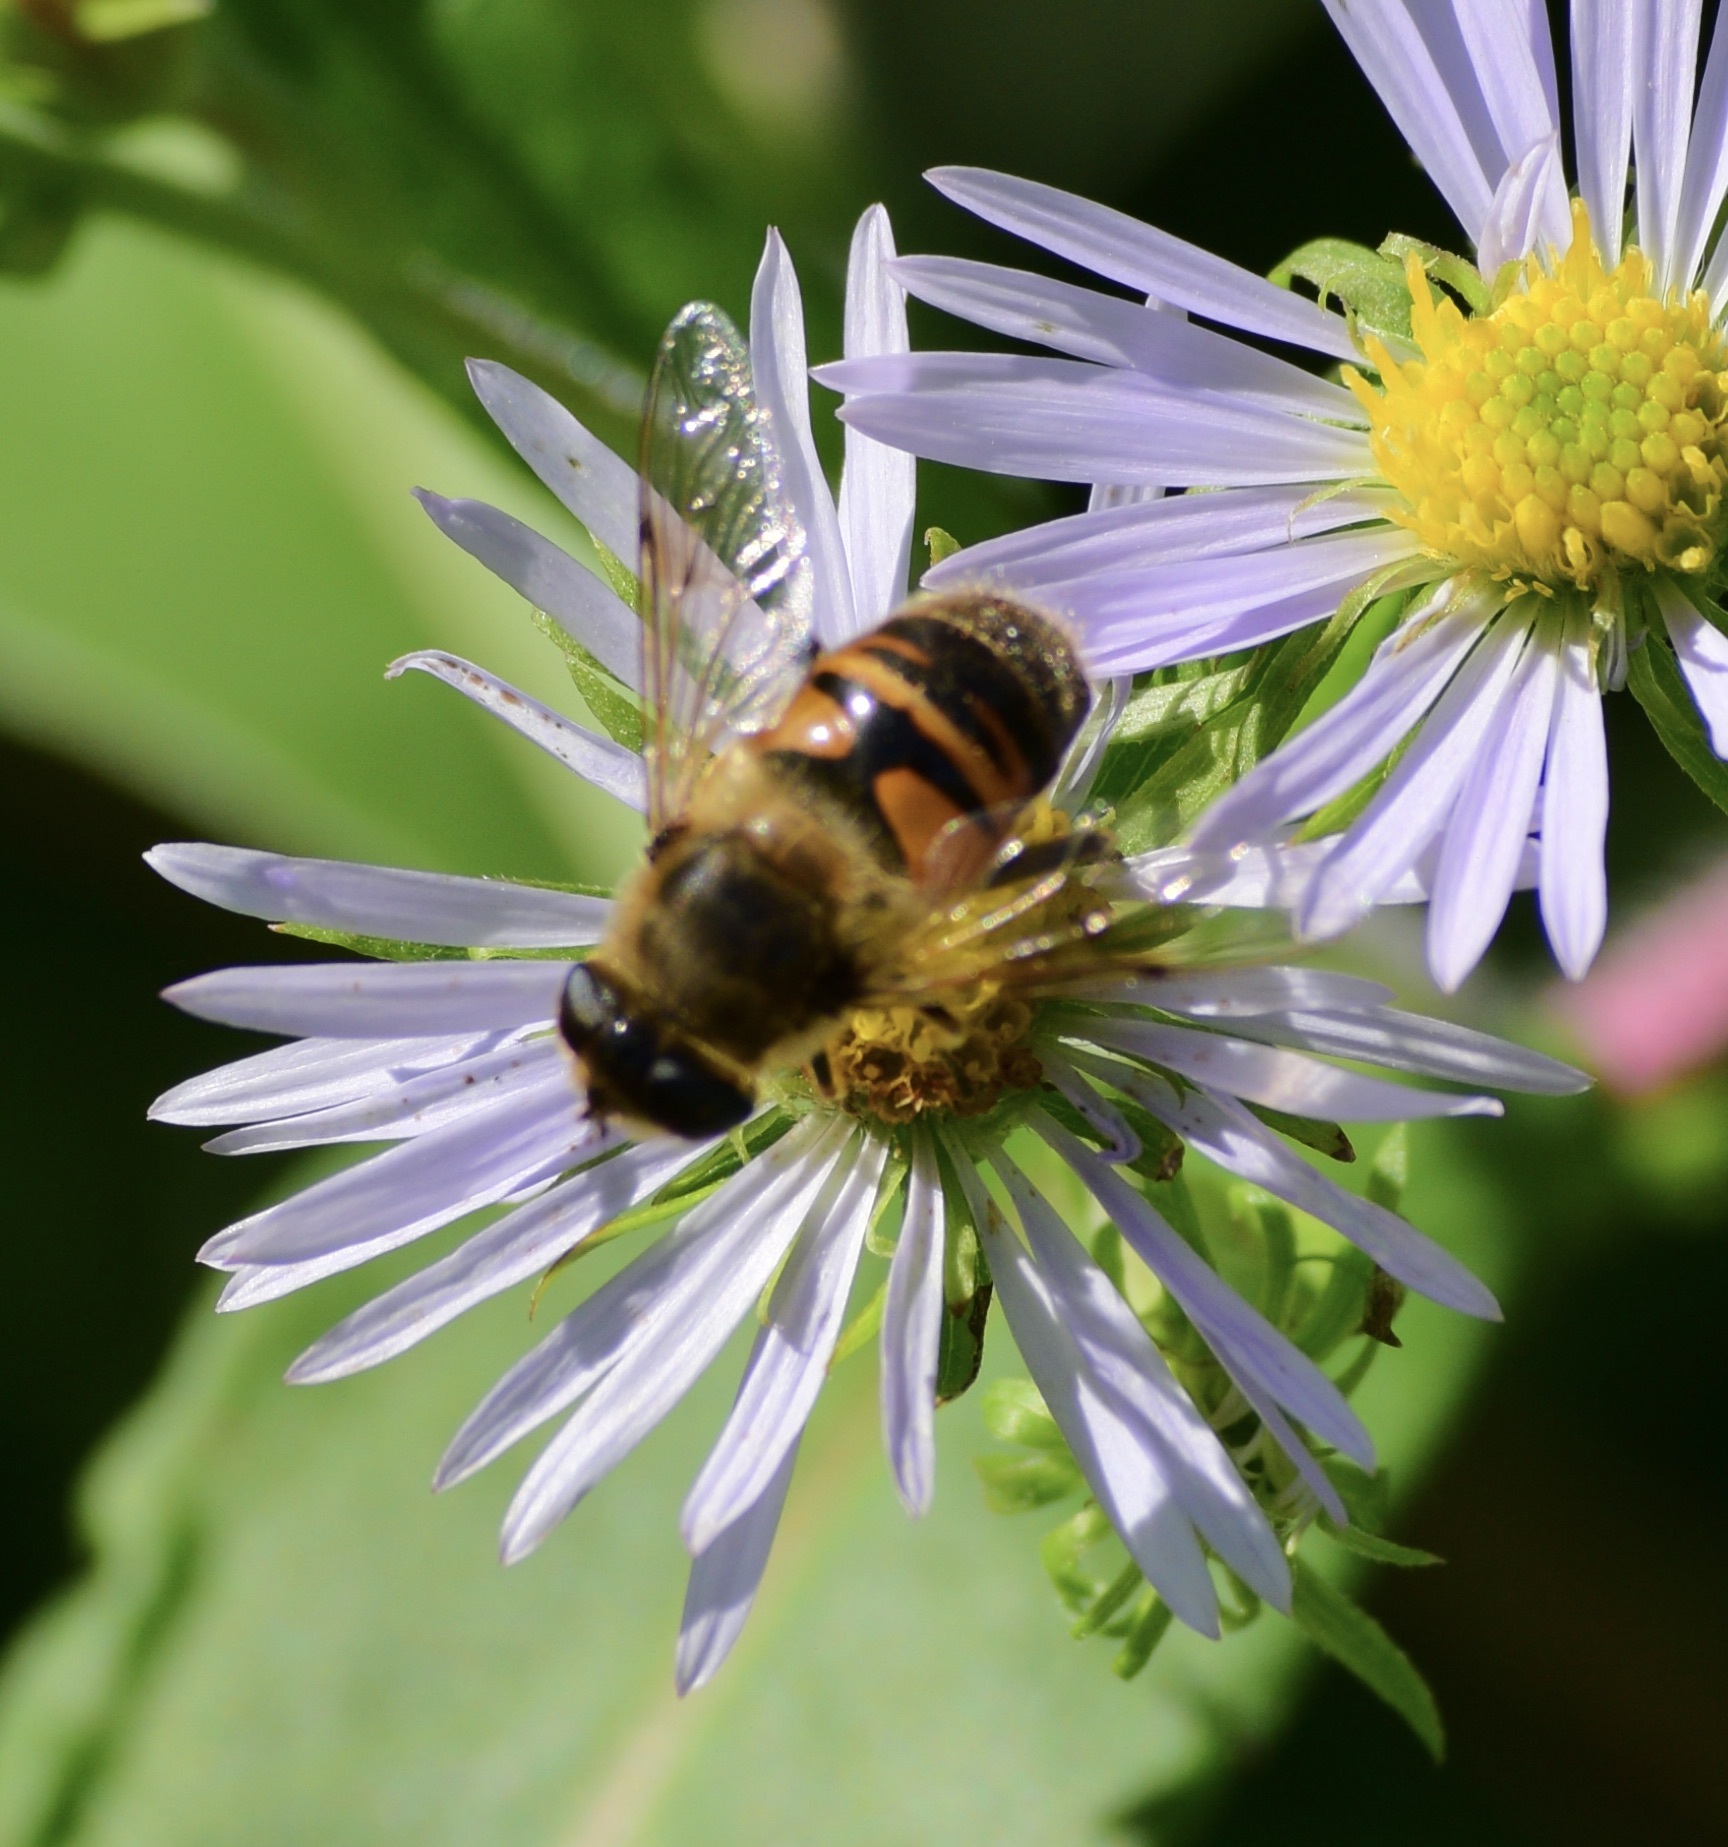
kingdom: Animalia
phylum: Arthropoda
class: Insecta
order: Diptera
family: Syrphidae
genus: Eristalis
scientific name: Eristalis tenax
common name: Drone fly
